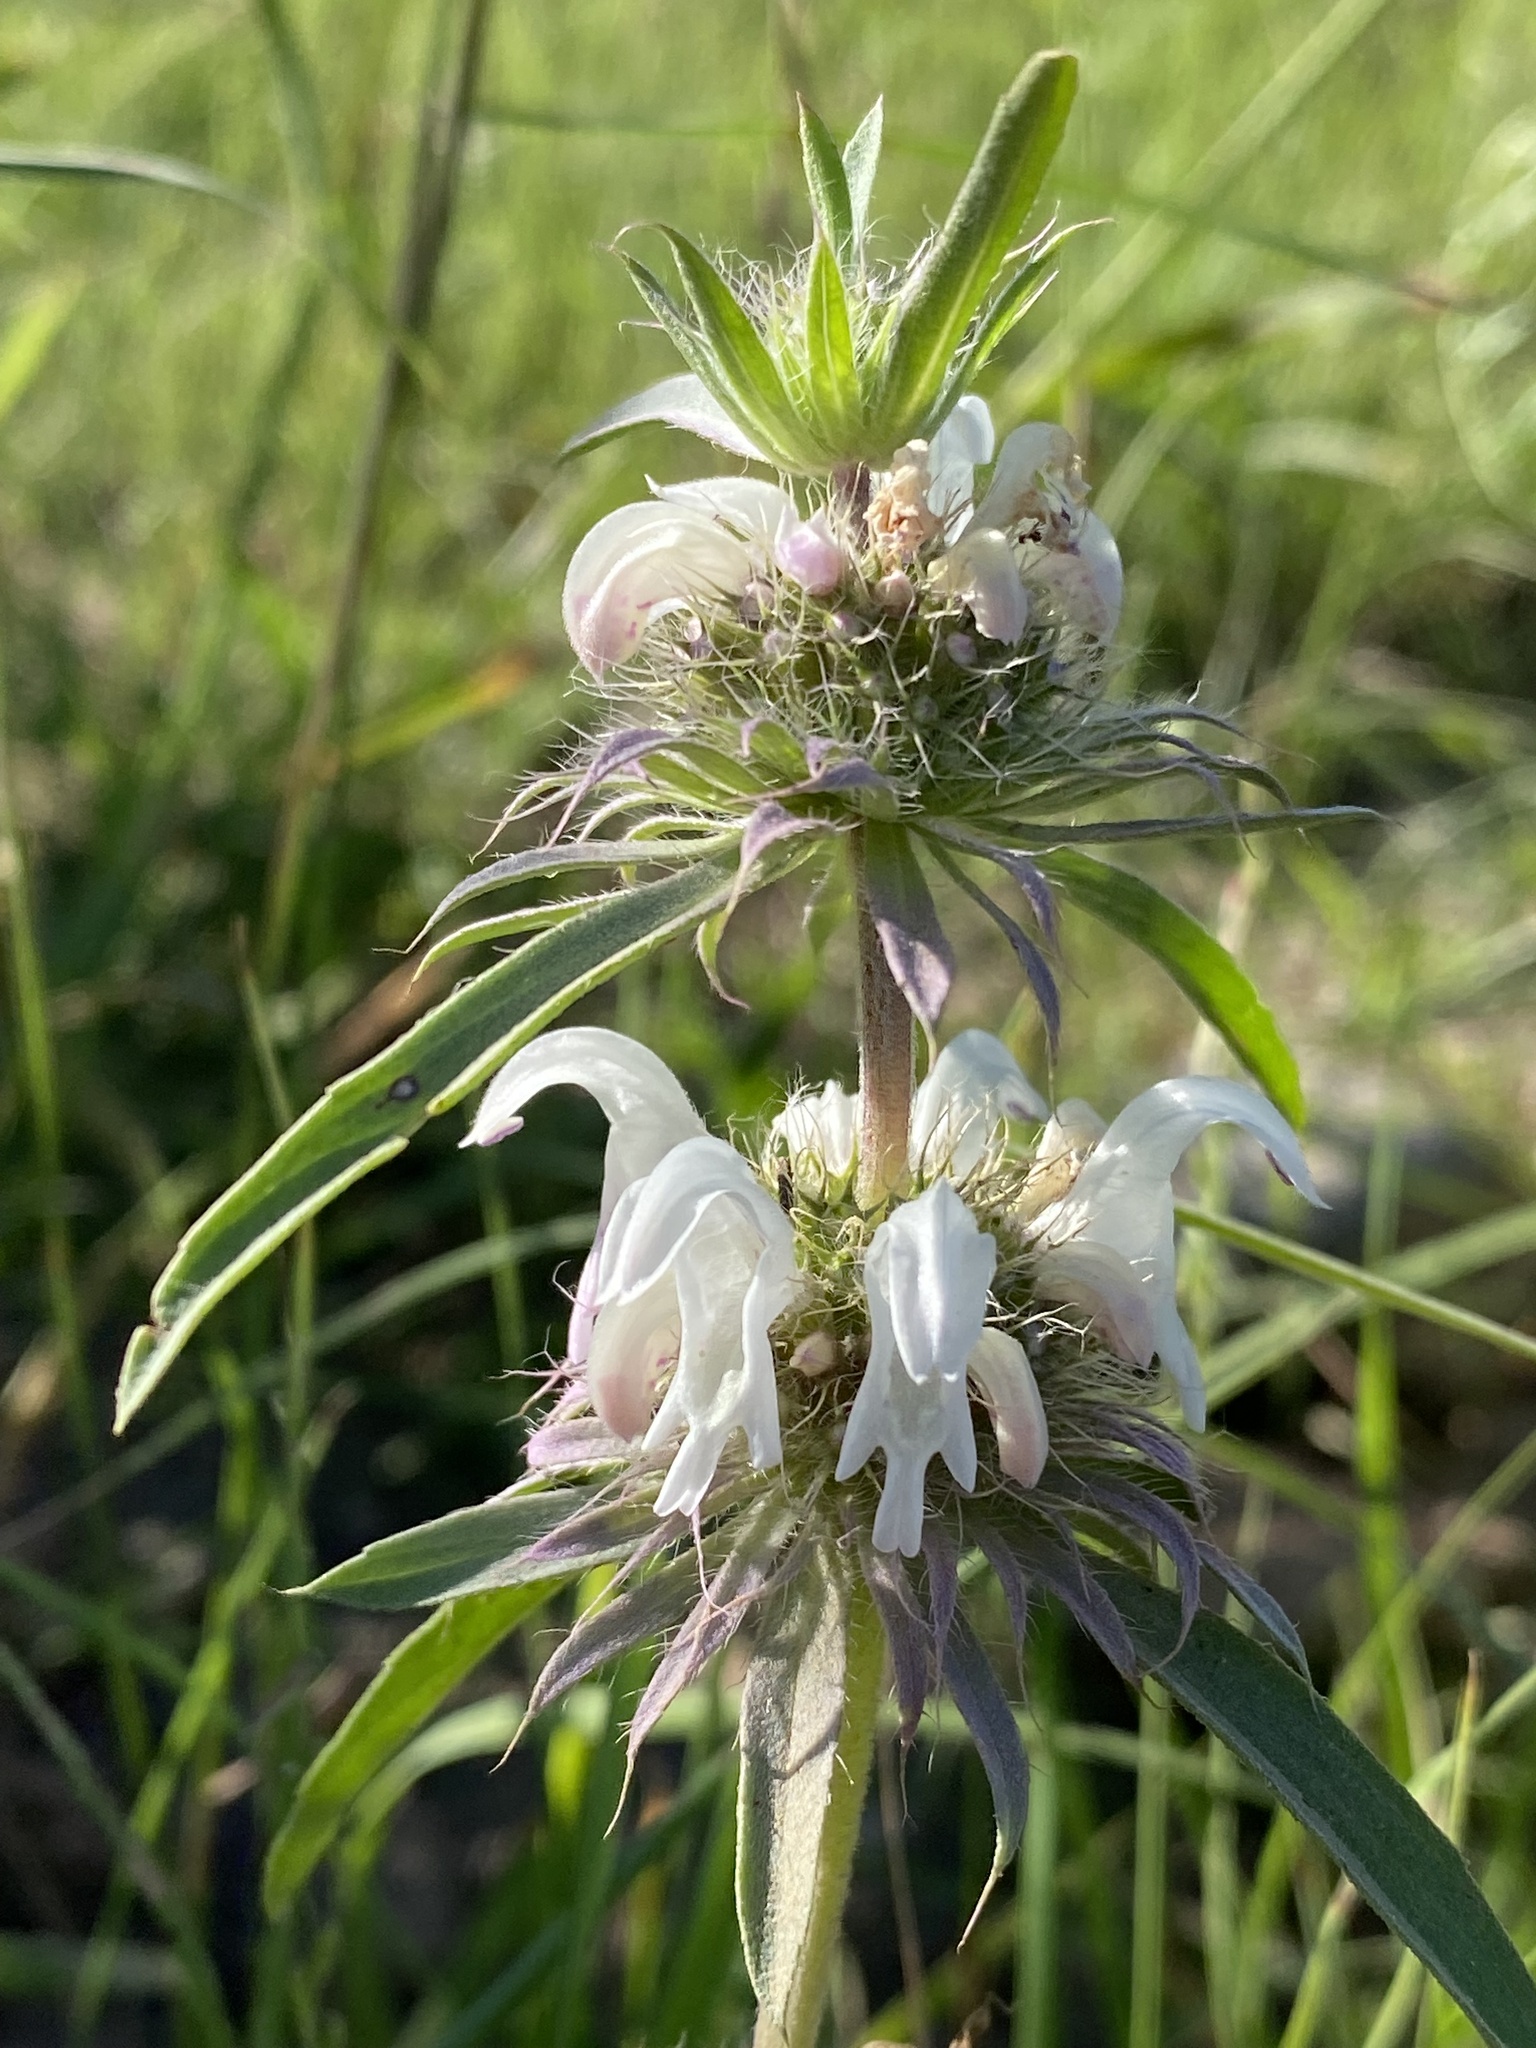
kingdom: Plantae
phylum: Tracheophyta
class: Magnoliopsida
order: Lamiales
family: Lamiaceae
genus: Monarda
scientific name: Monarda pectinata
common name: Plains beebalm
